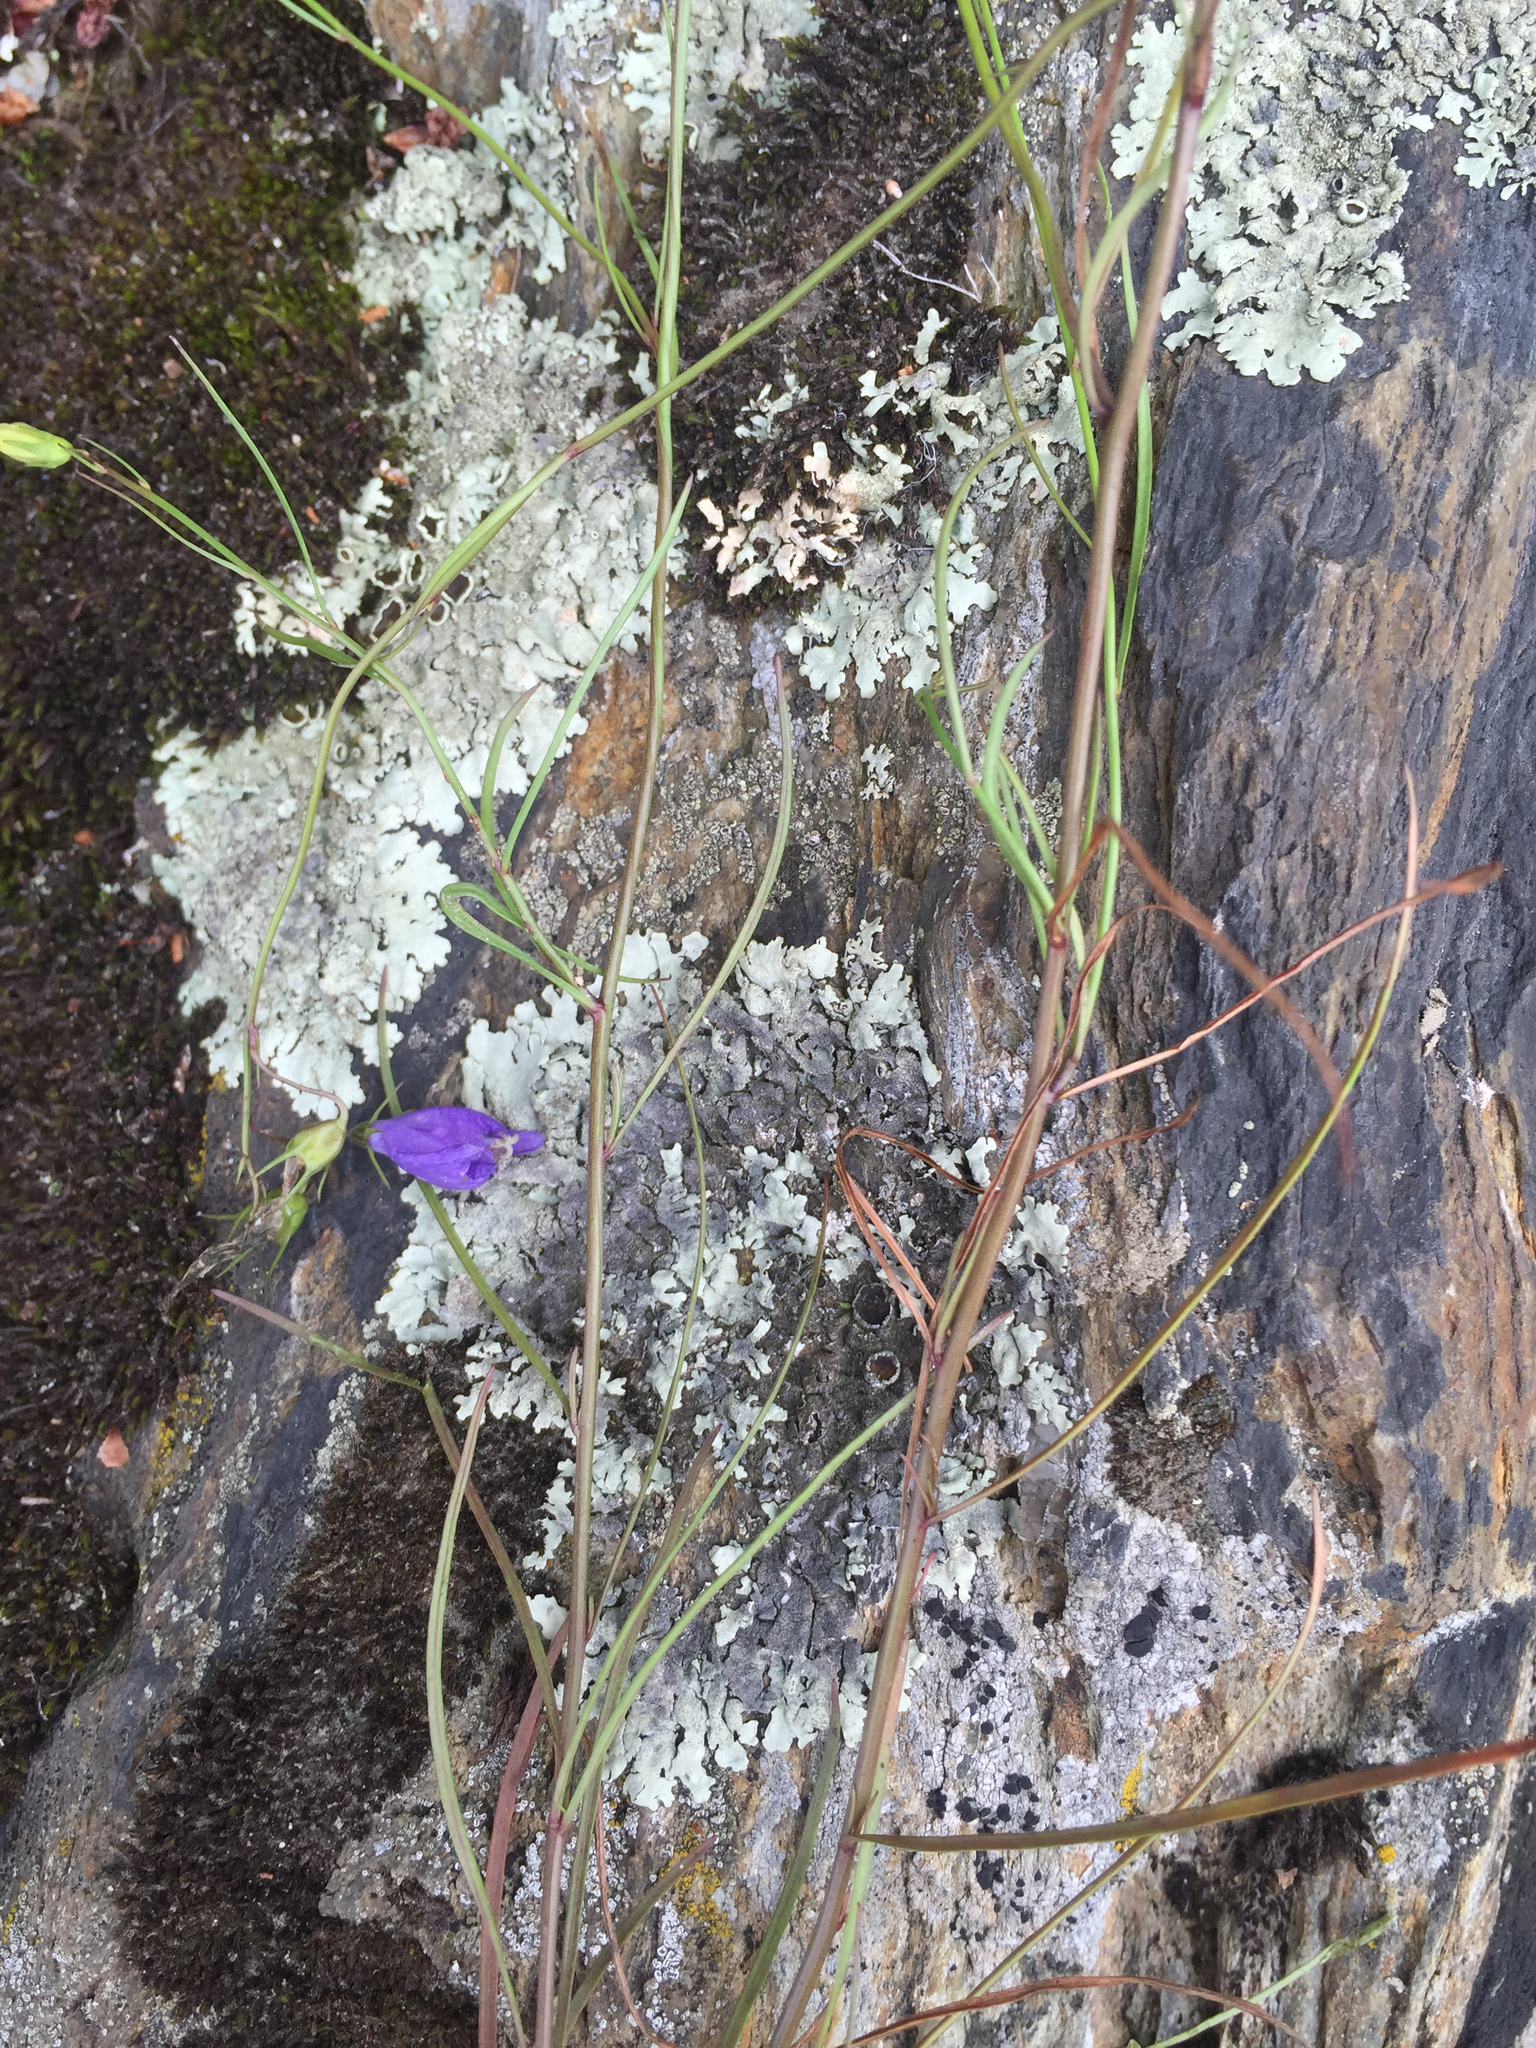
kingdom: Plantae
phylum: Tracheophyta
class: Magnoliopsida
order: Asterales
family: Campanulaceae
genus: Campanula
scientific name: Campanula intercedens
